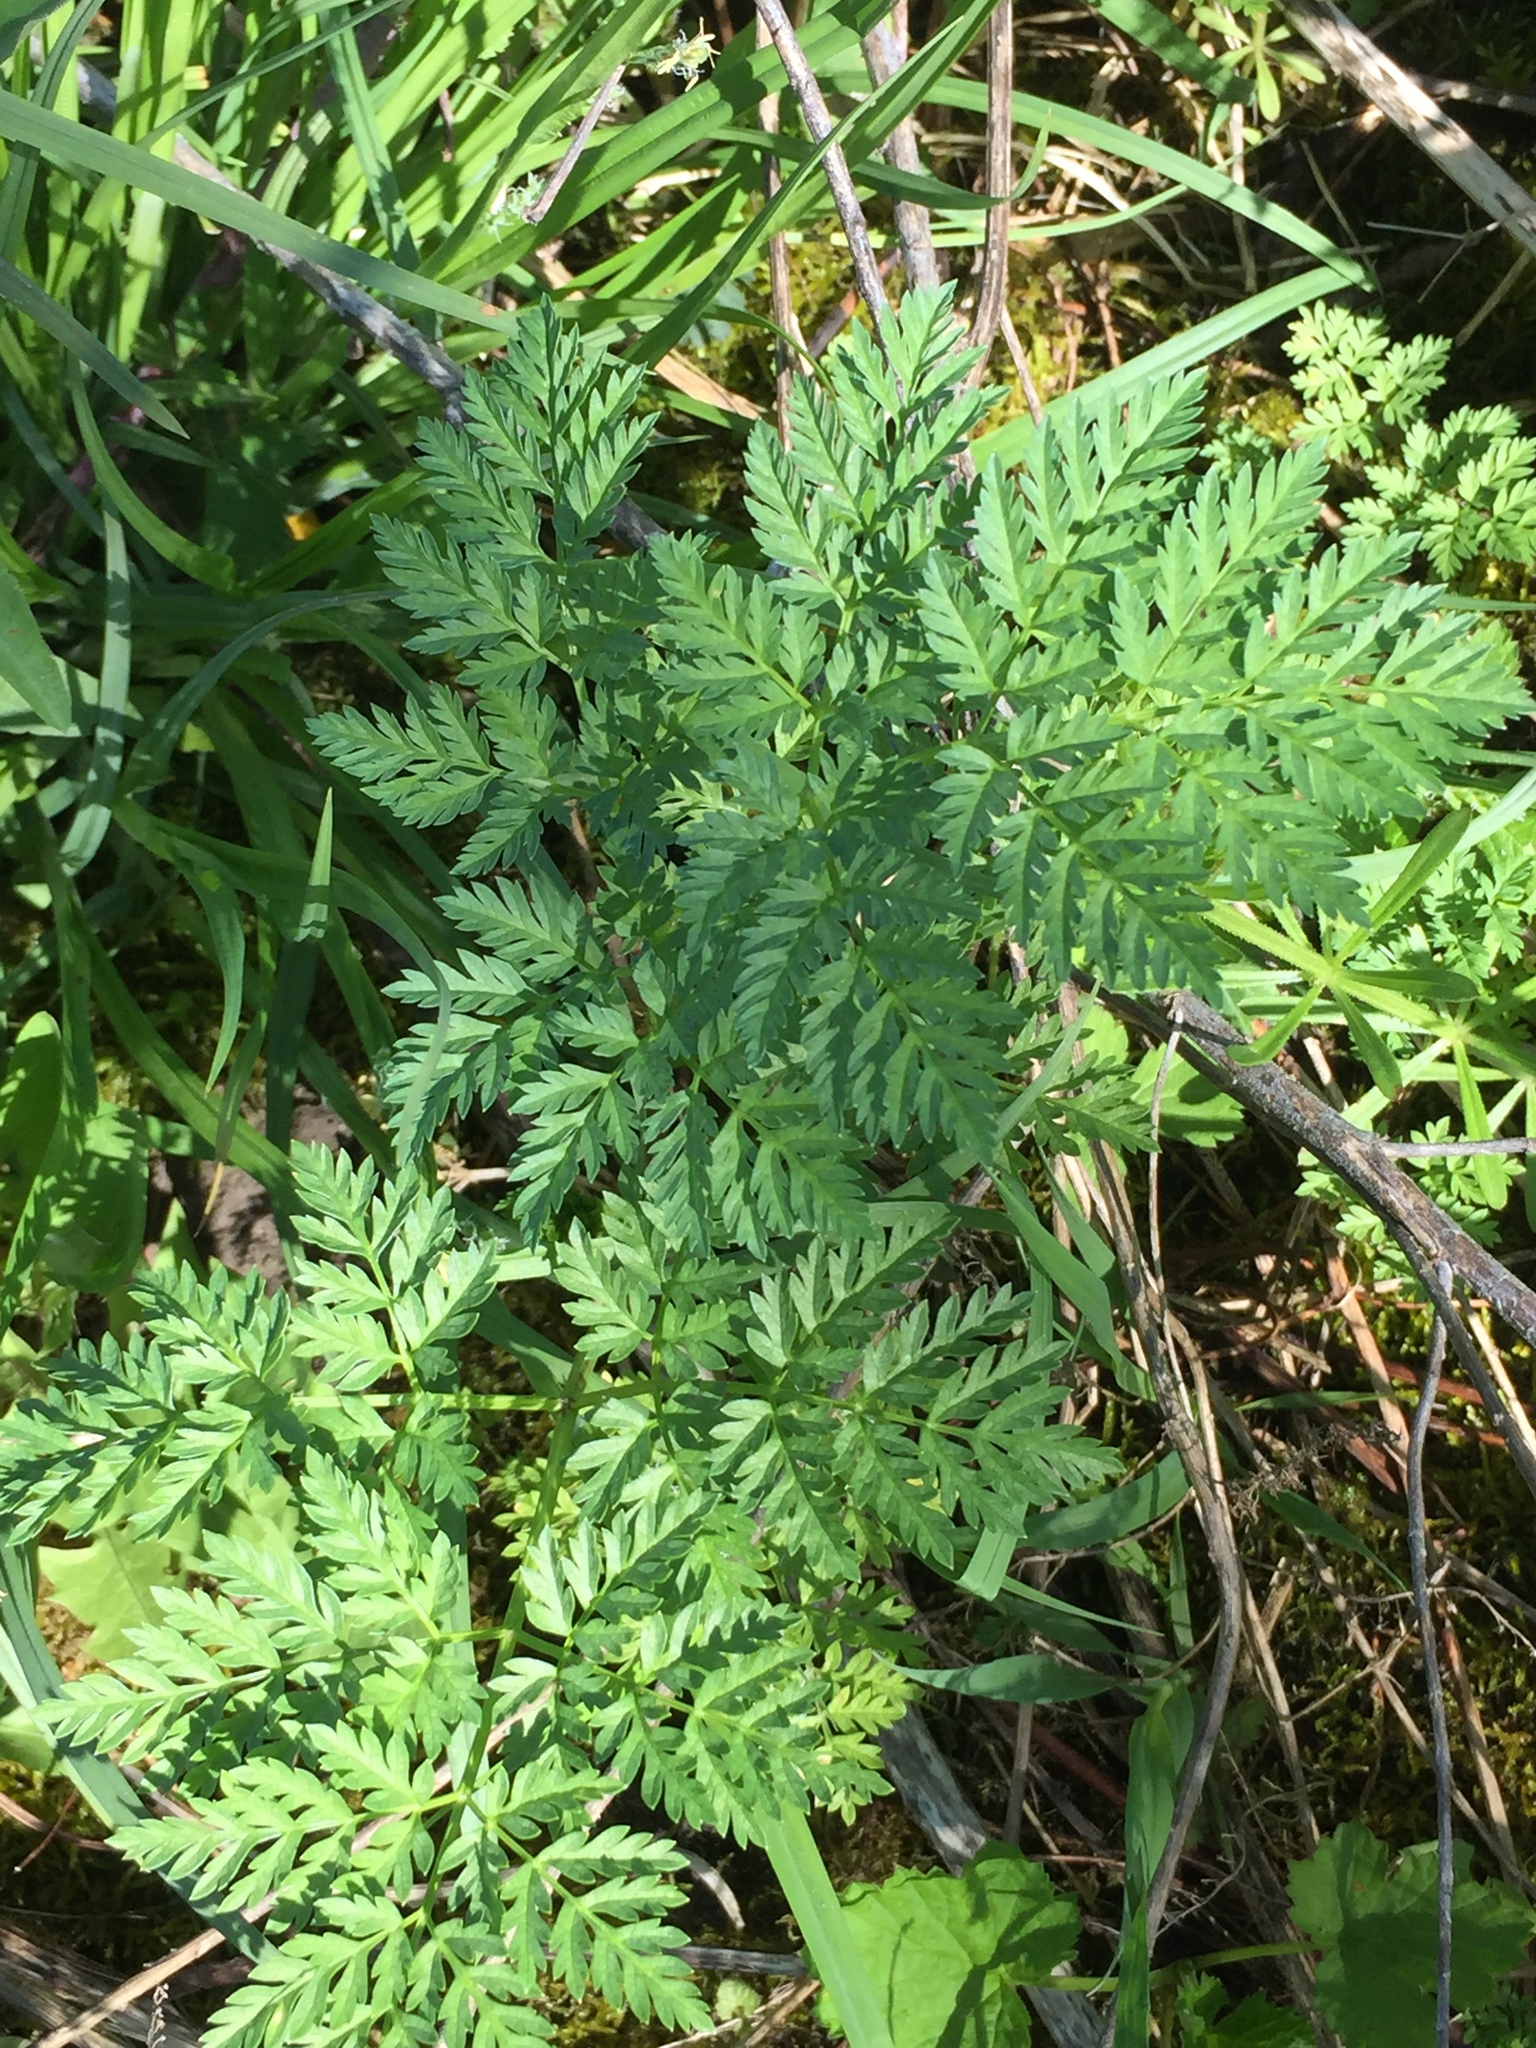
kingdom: Plantae
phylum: Tracheophyta
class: Magnoliopsida
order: Apiales
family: Apiaceae
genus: Conium
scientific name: Conium maculatum
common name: Hemlock
